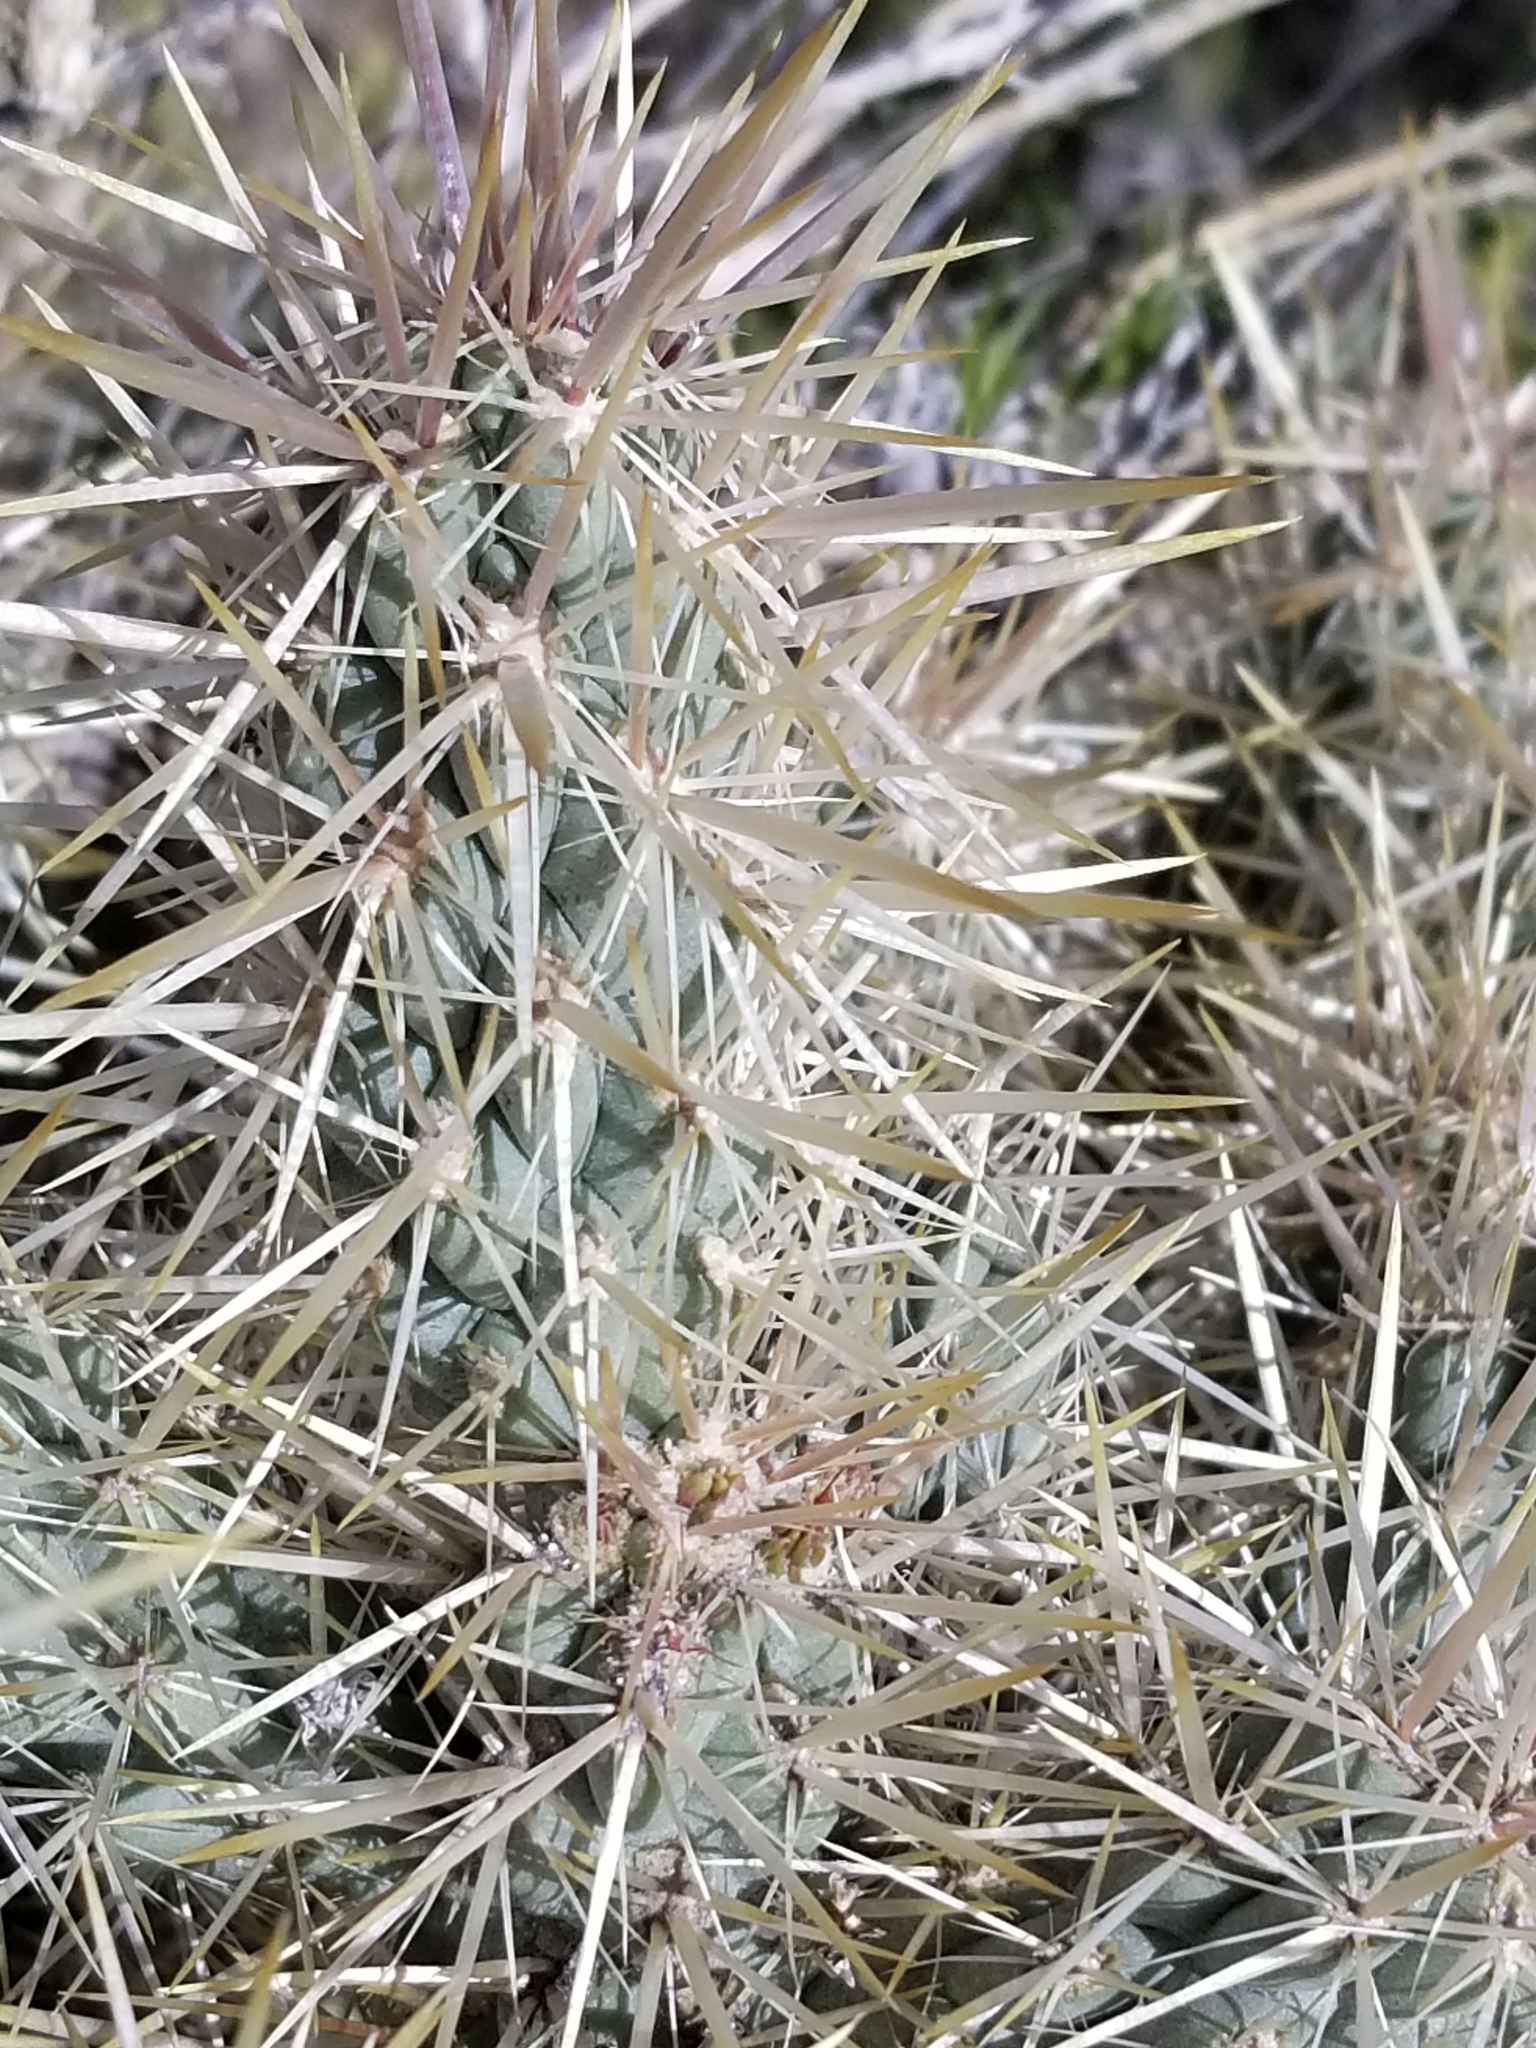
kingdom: Plantae
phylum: Tracheophyta
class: Magnoliopsida
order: Caryophyllales
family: Cactaceae
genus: Cylindropuntia
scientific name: Cylindropuntia echinocarpa
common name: Ground cholla
